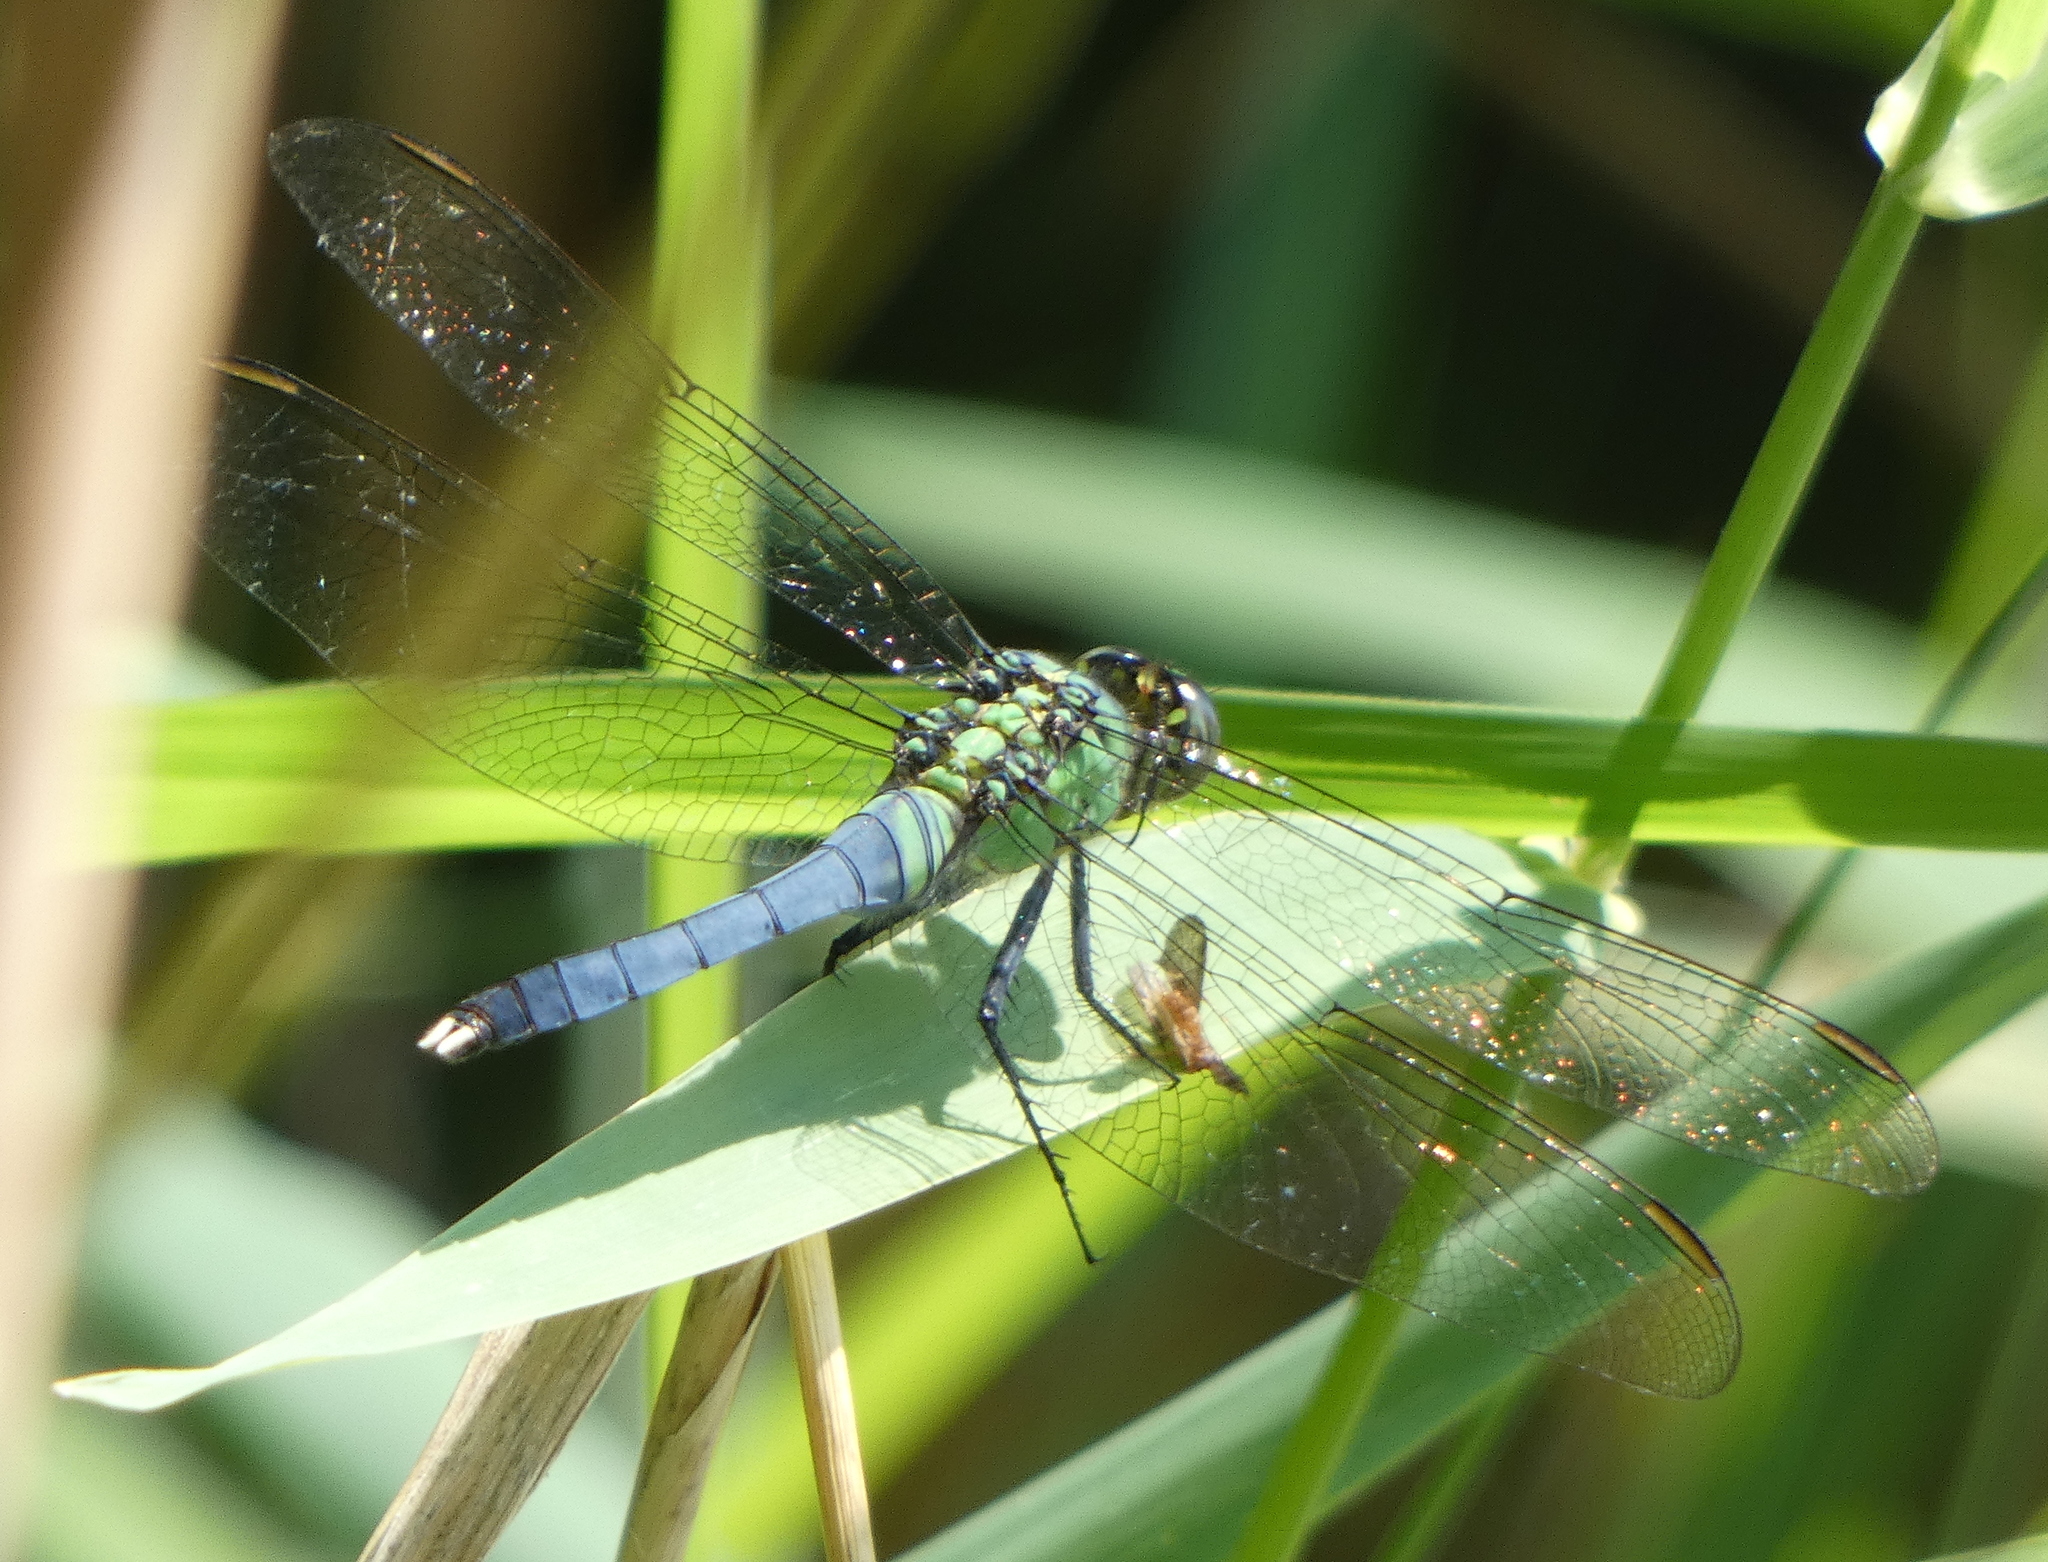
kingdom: Animalia
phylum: Arthropoda
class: Insecta
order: Odonata
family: Libellulidae
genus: Erythemis
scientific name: Erythemis simplicicollis
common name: Eastern pondhawk
